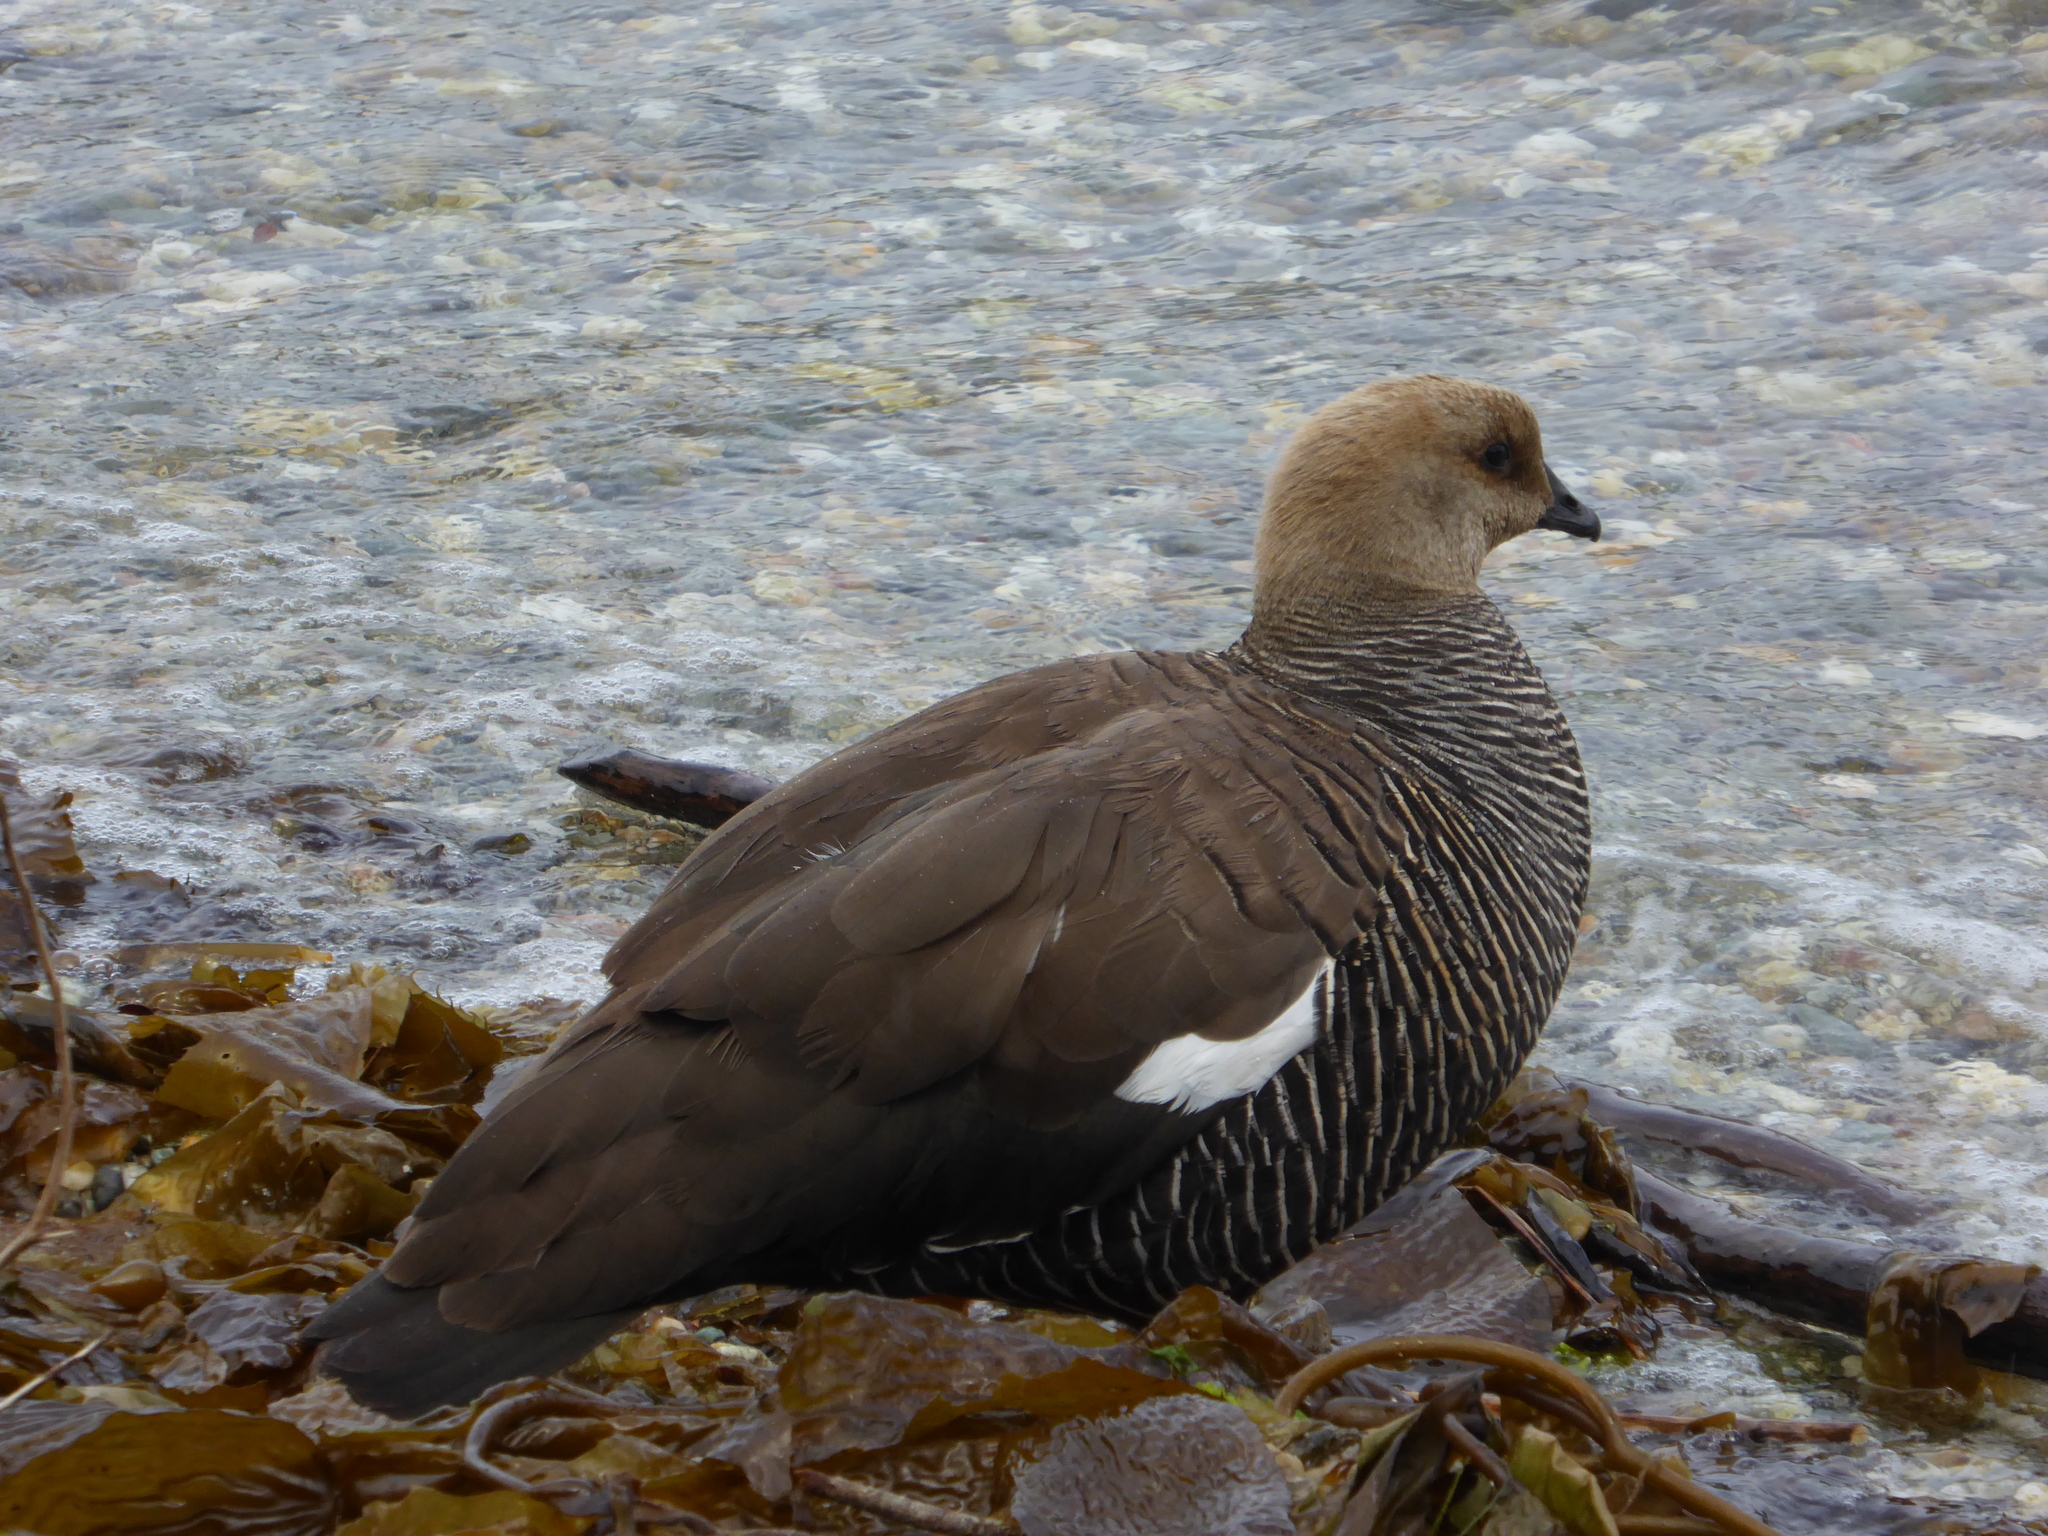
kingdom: Animalia
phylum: Chordata
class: Aves
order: Anseriformes
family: Anatidae
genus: Chloephaga
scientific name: Chloephaga picta
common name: Upland goose
